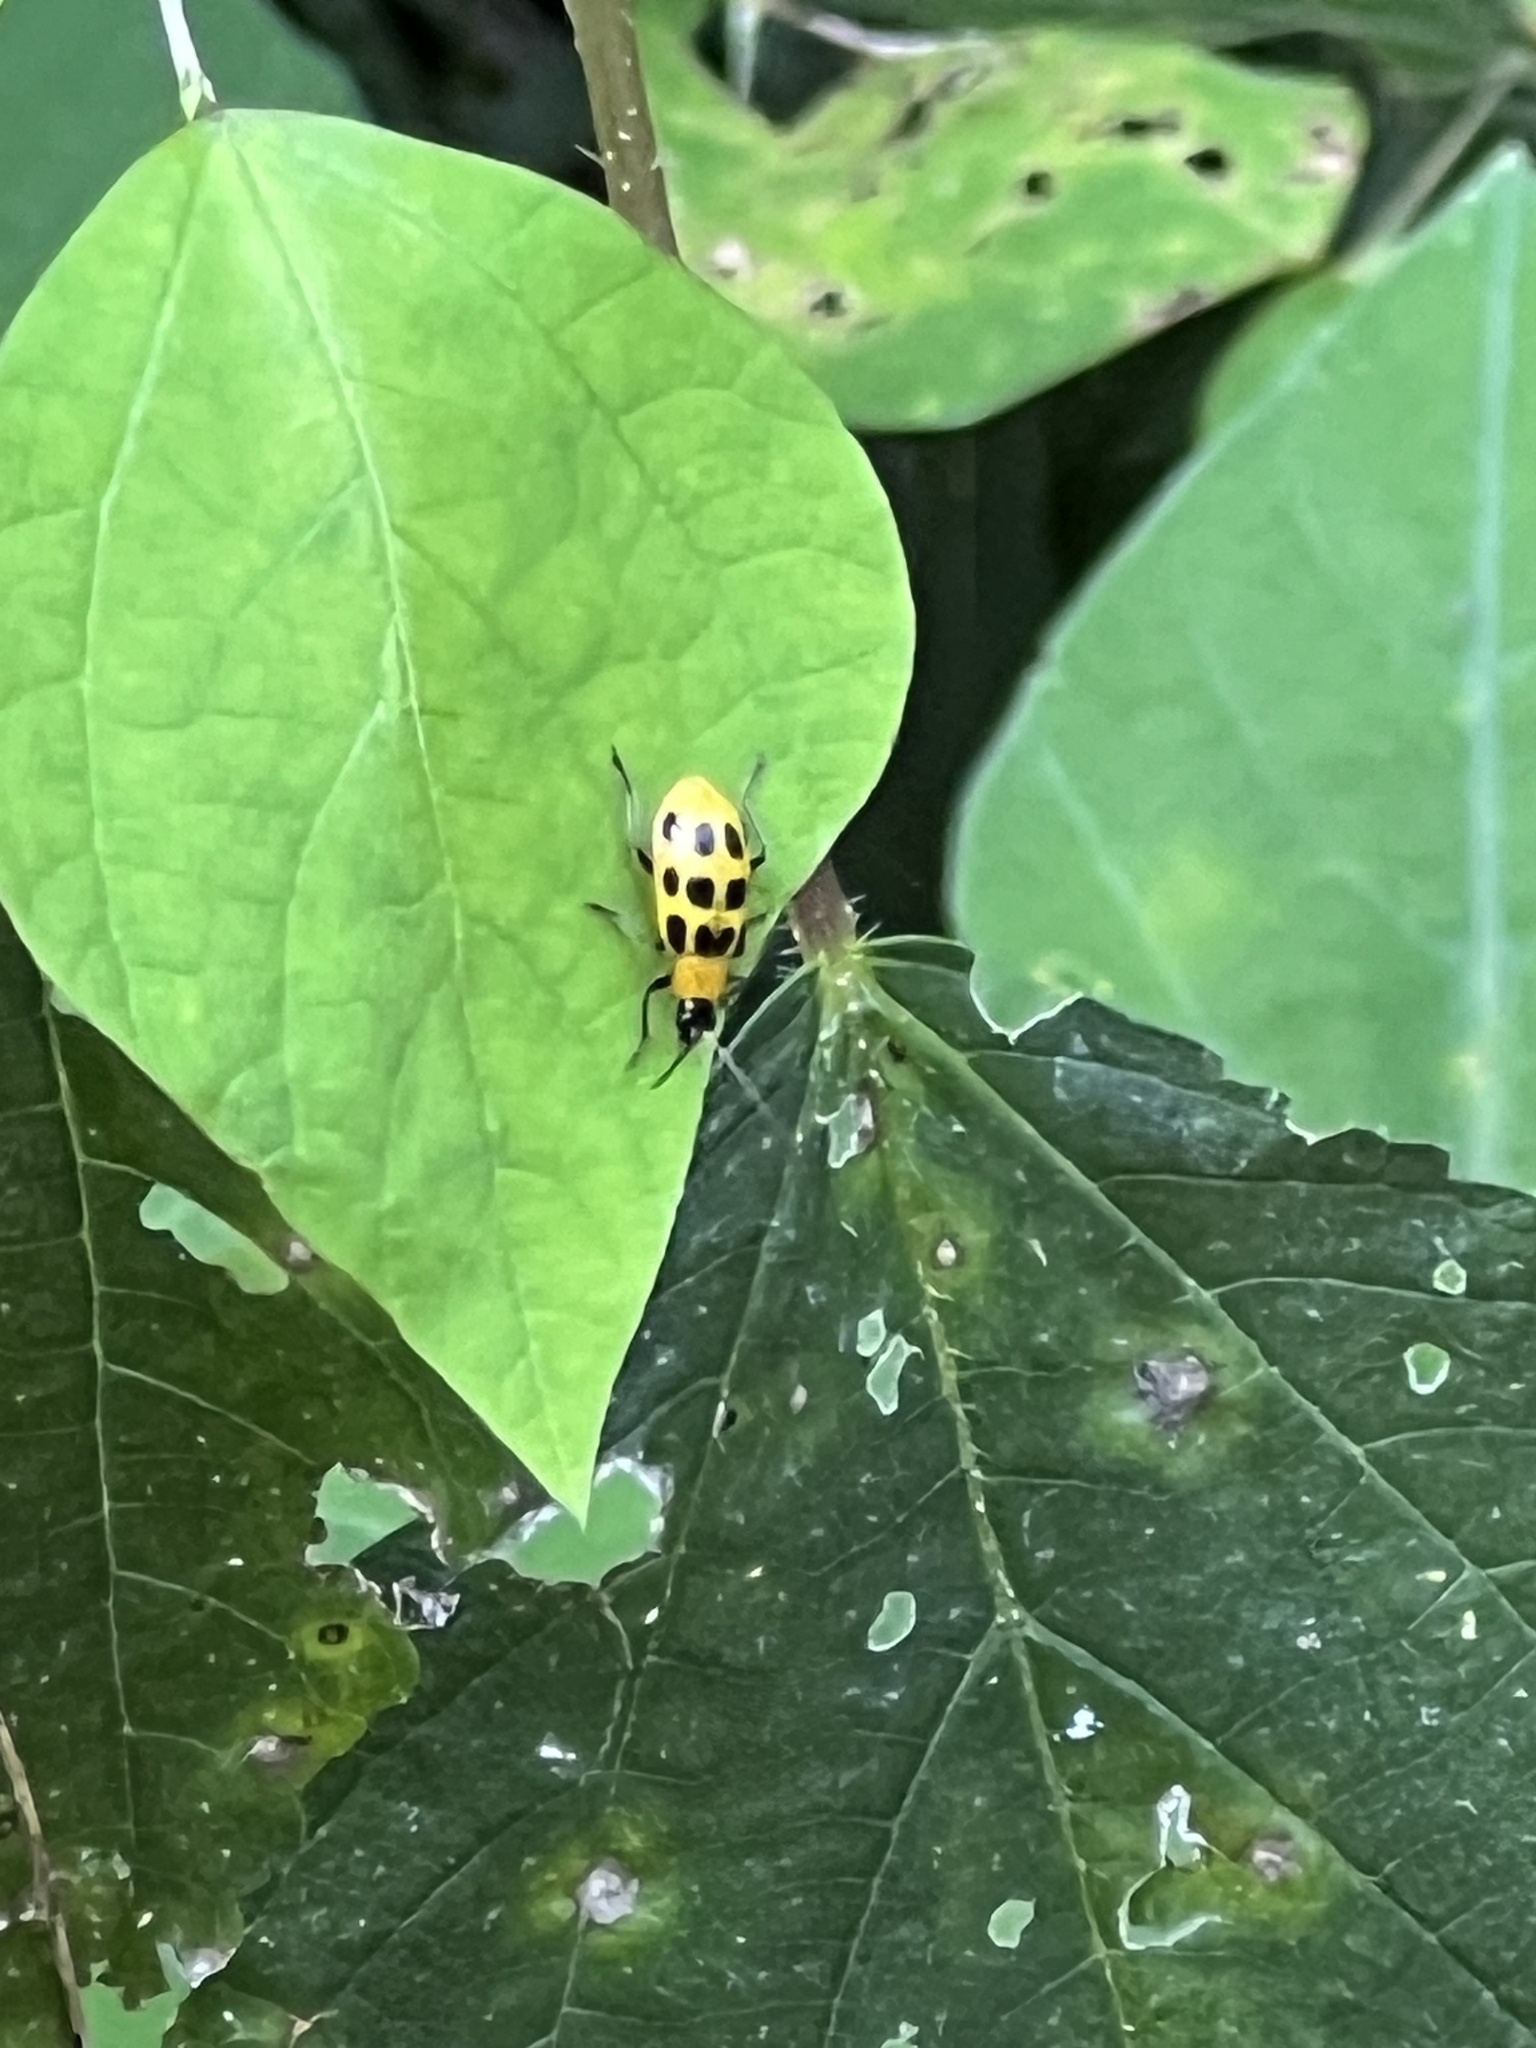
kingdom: Animalia
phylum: Arthropoda
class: Insecta
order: Coleoptera
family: Chrysomelidae
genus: Diabrotica
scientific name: Diabrotica undecimpunctata
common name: Spotted cucumber beetle
